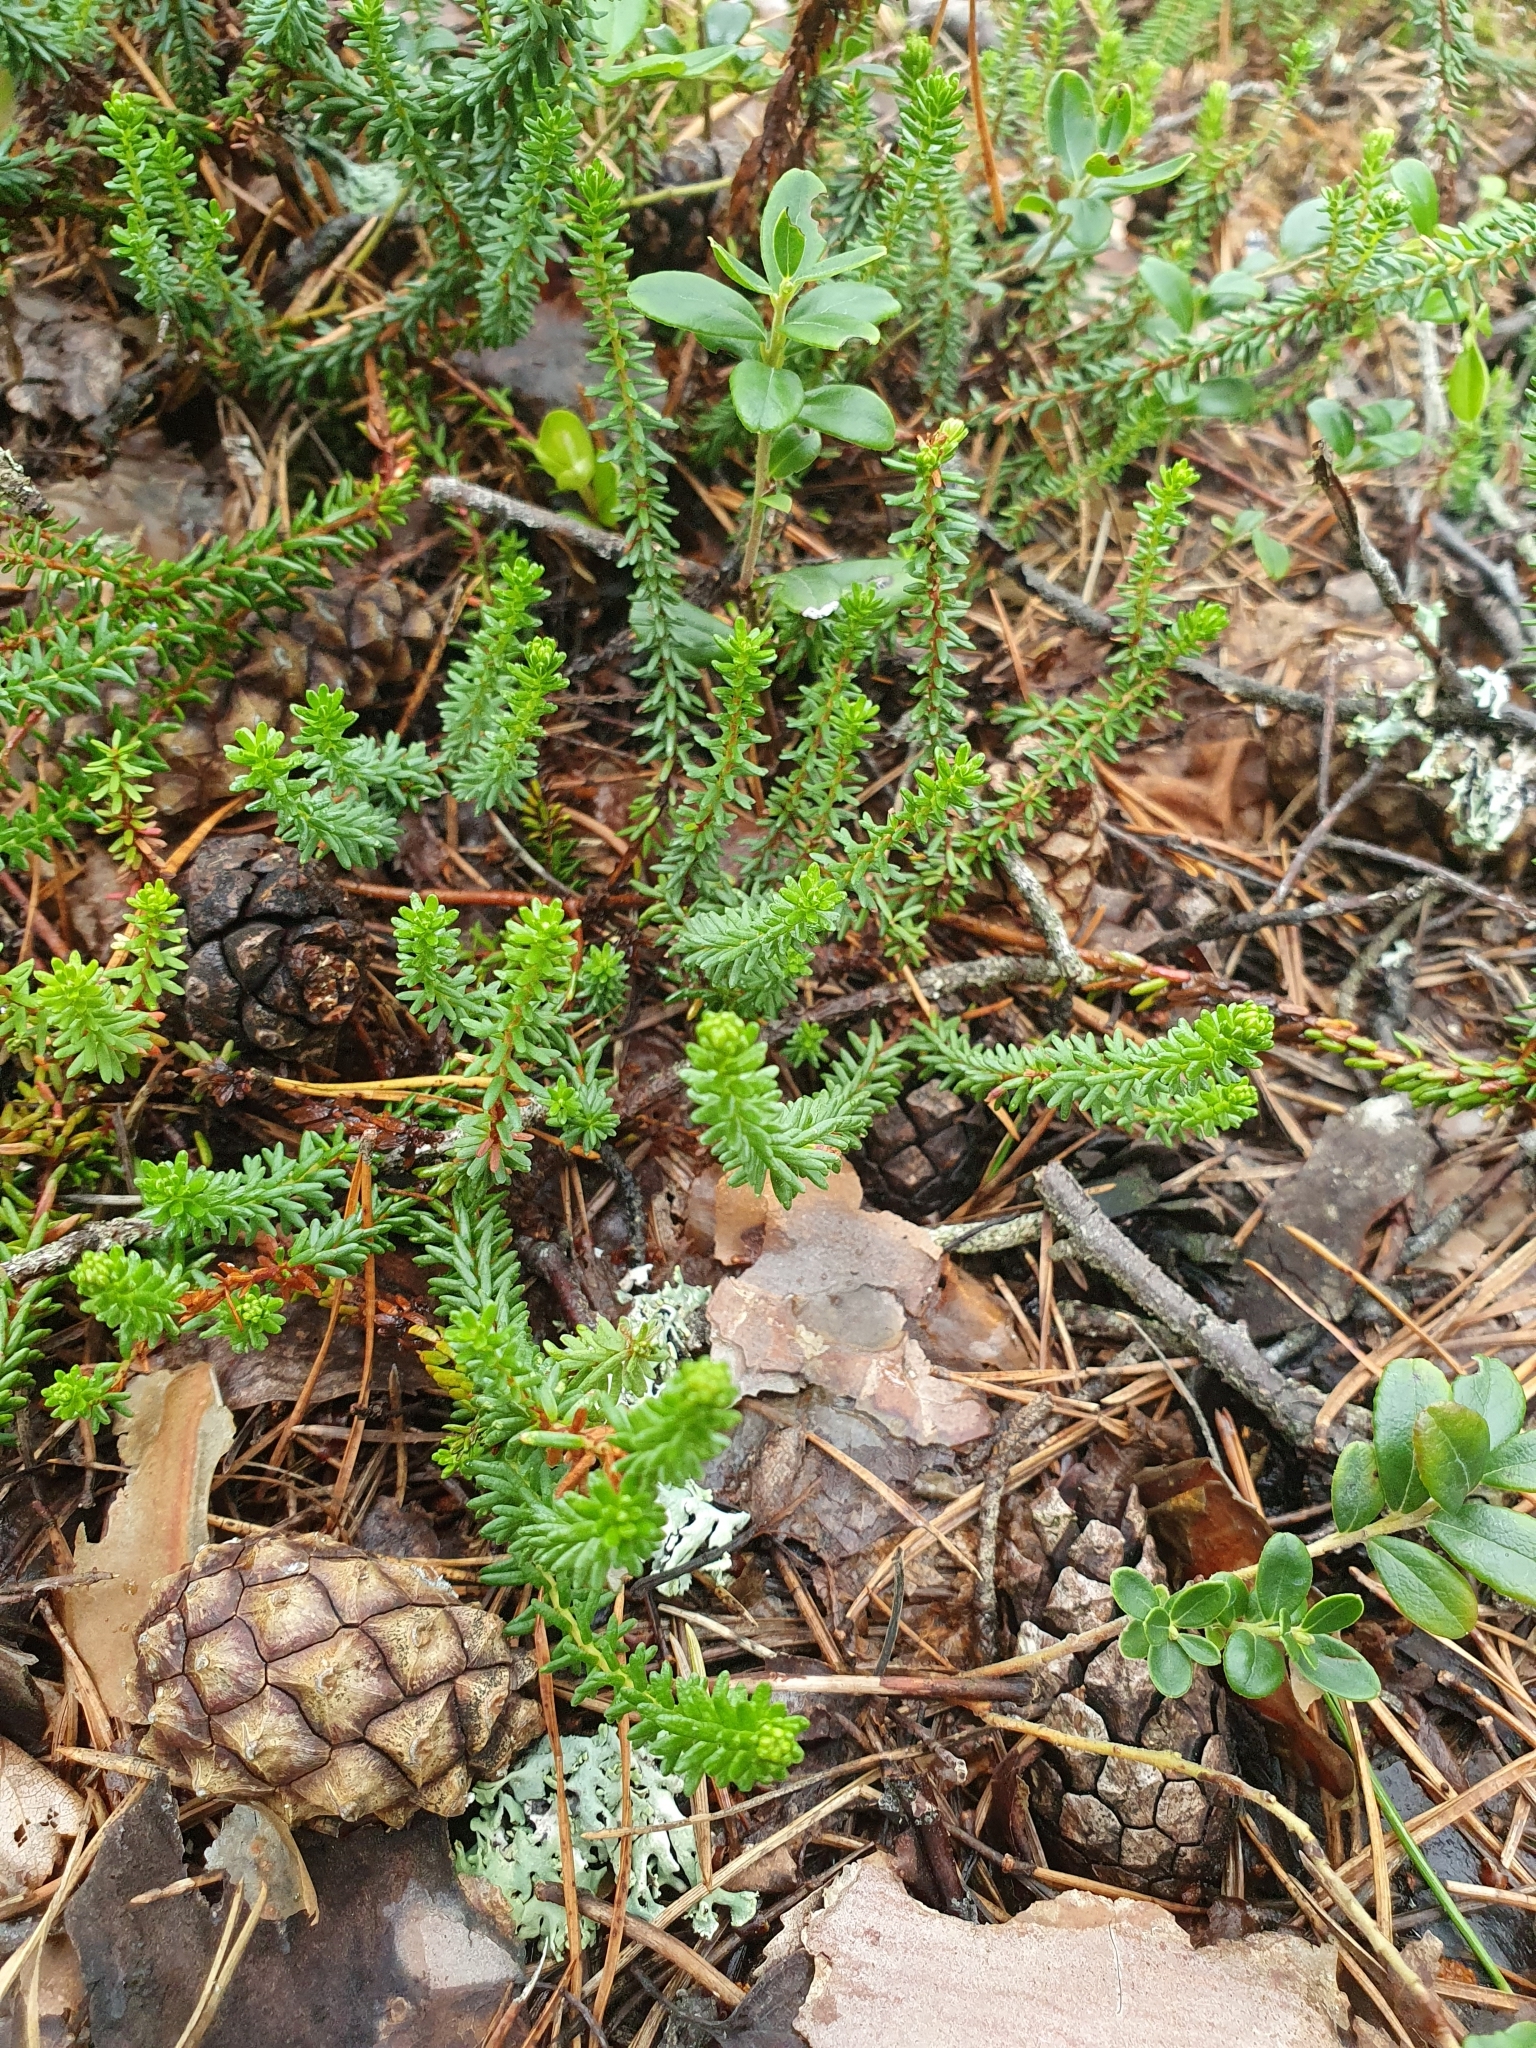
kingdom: Plantae
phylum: Tracheophyta
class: Magnoliopsida
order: Ericales
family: Ericaceae
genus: Empetrum
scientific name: Empetrum nigrum
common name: Black crowberry
